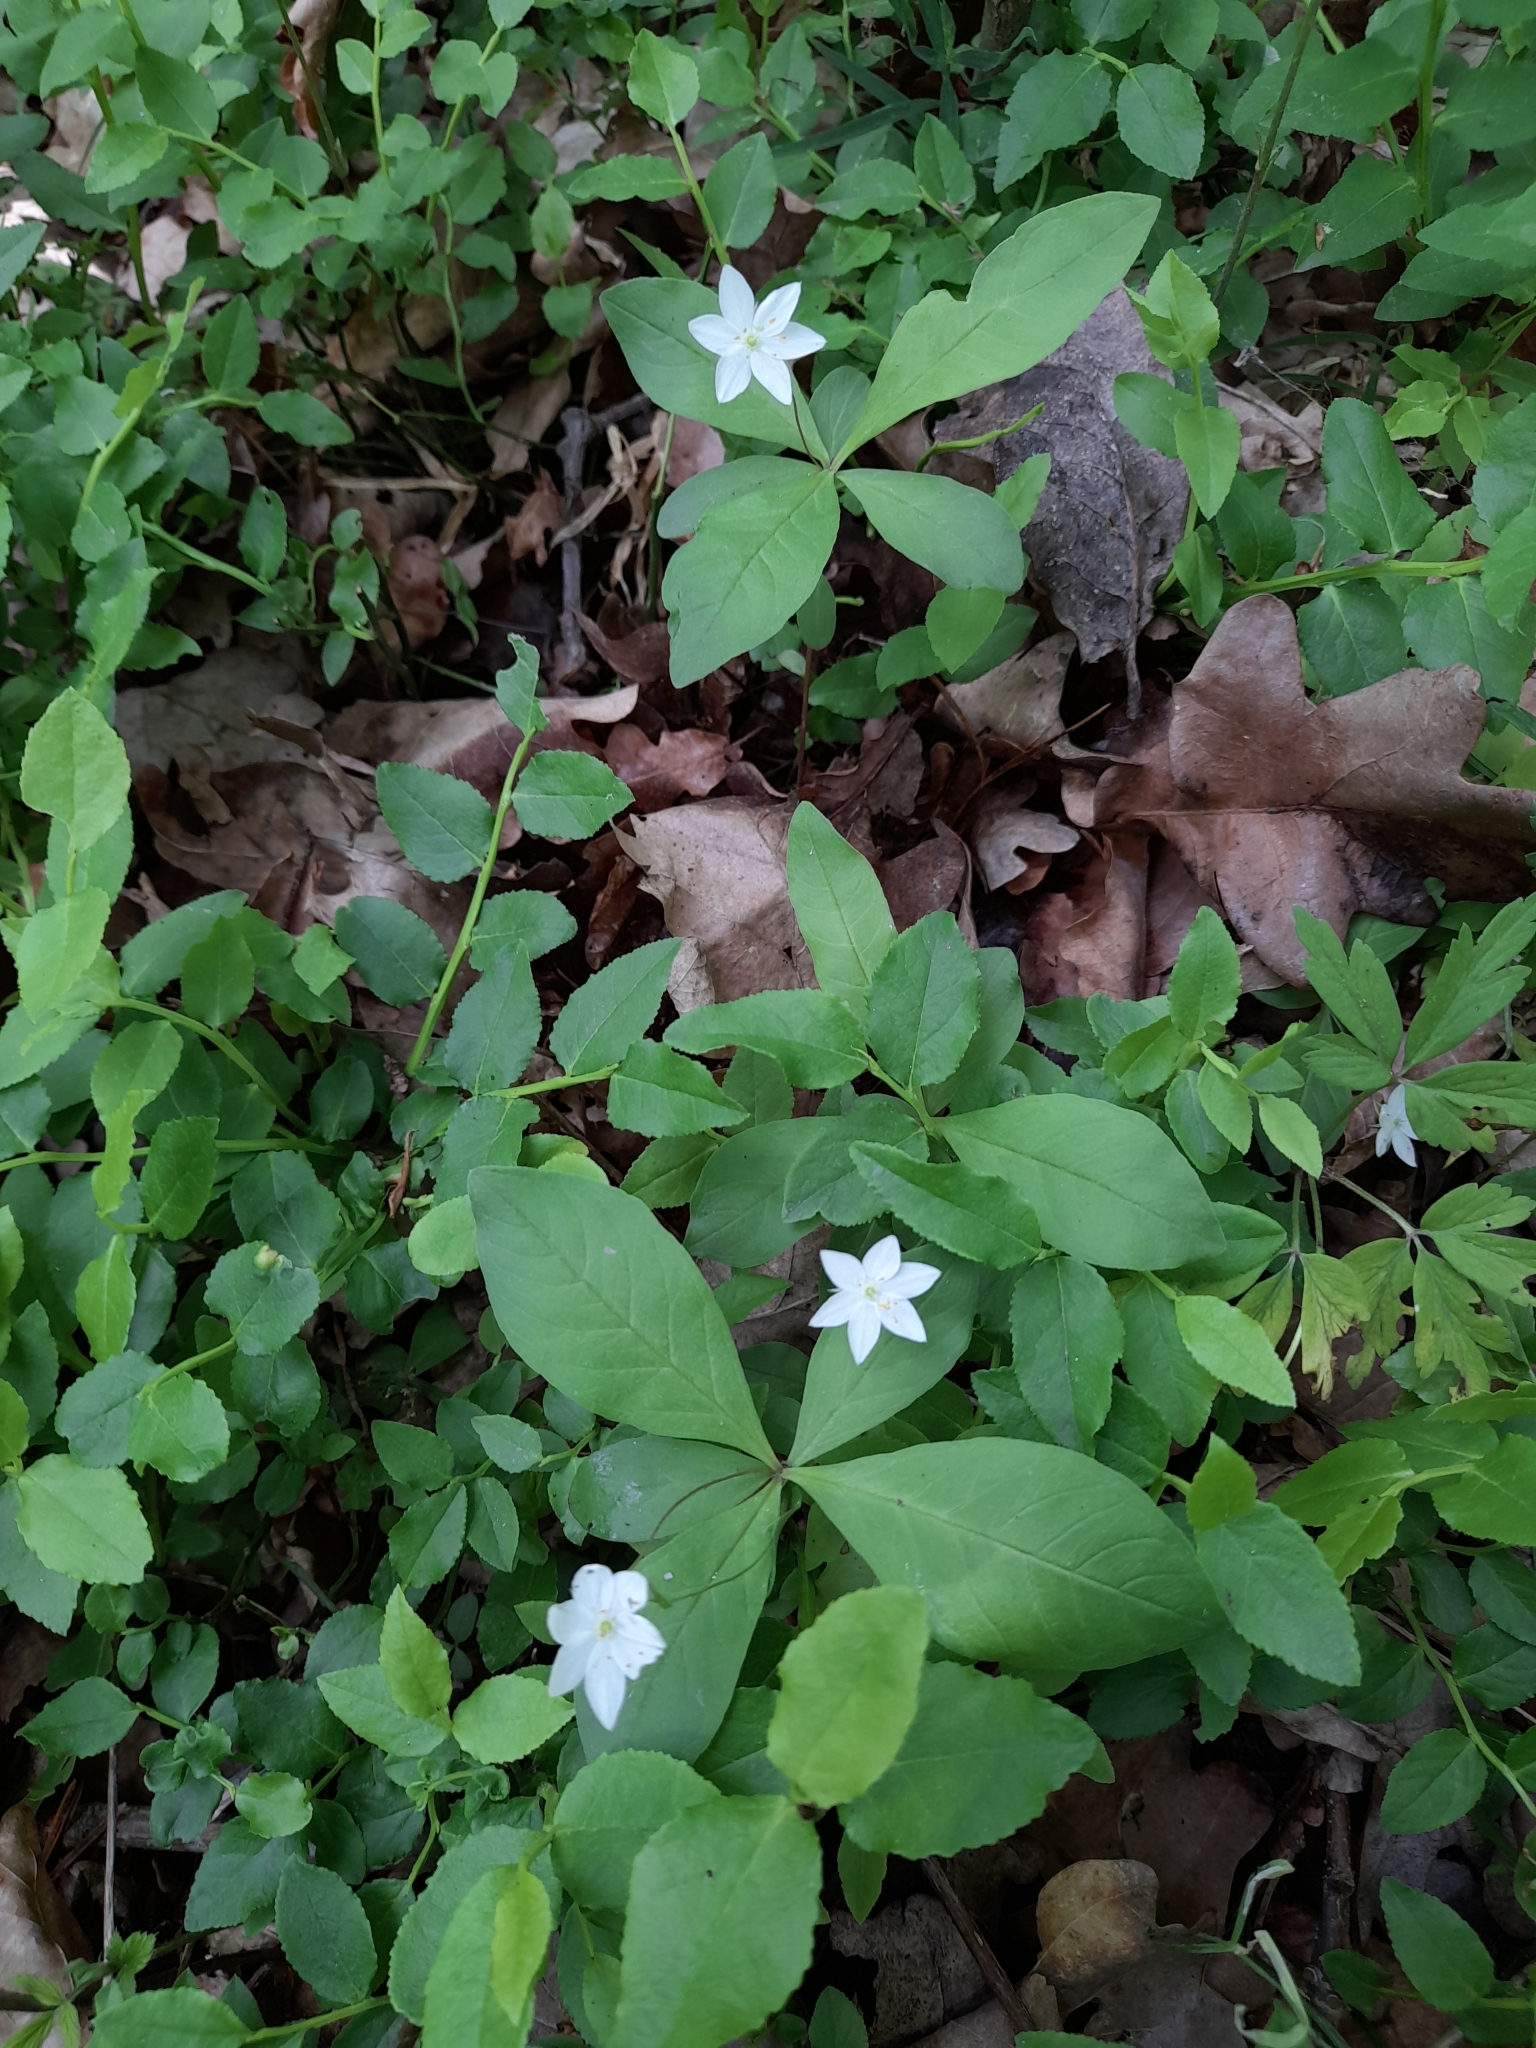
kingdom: Plantae
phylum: Tracheophyta
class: Magnoliopsida
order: Ericales
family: Primulaceae
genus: Lysimachia
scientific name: Lysimachia europaea
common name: Arctic starflower
